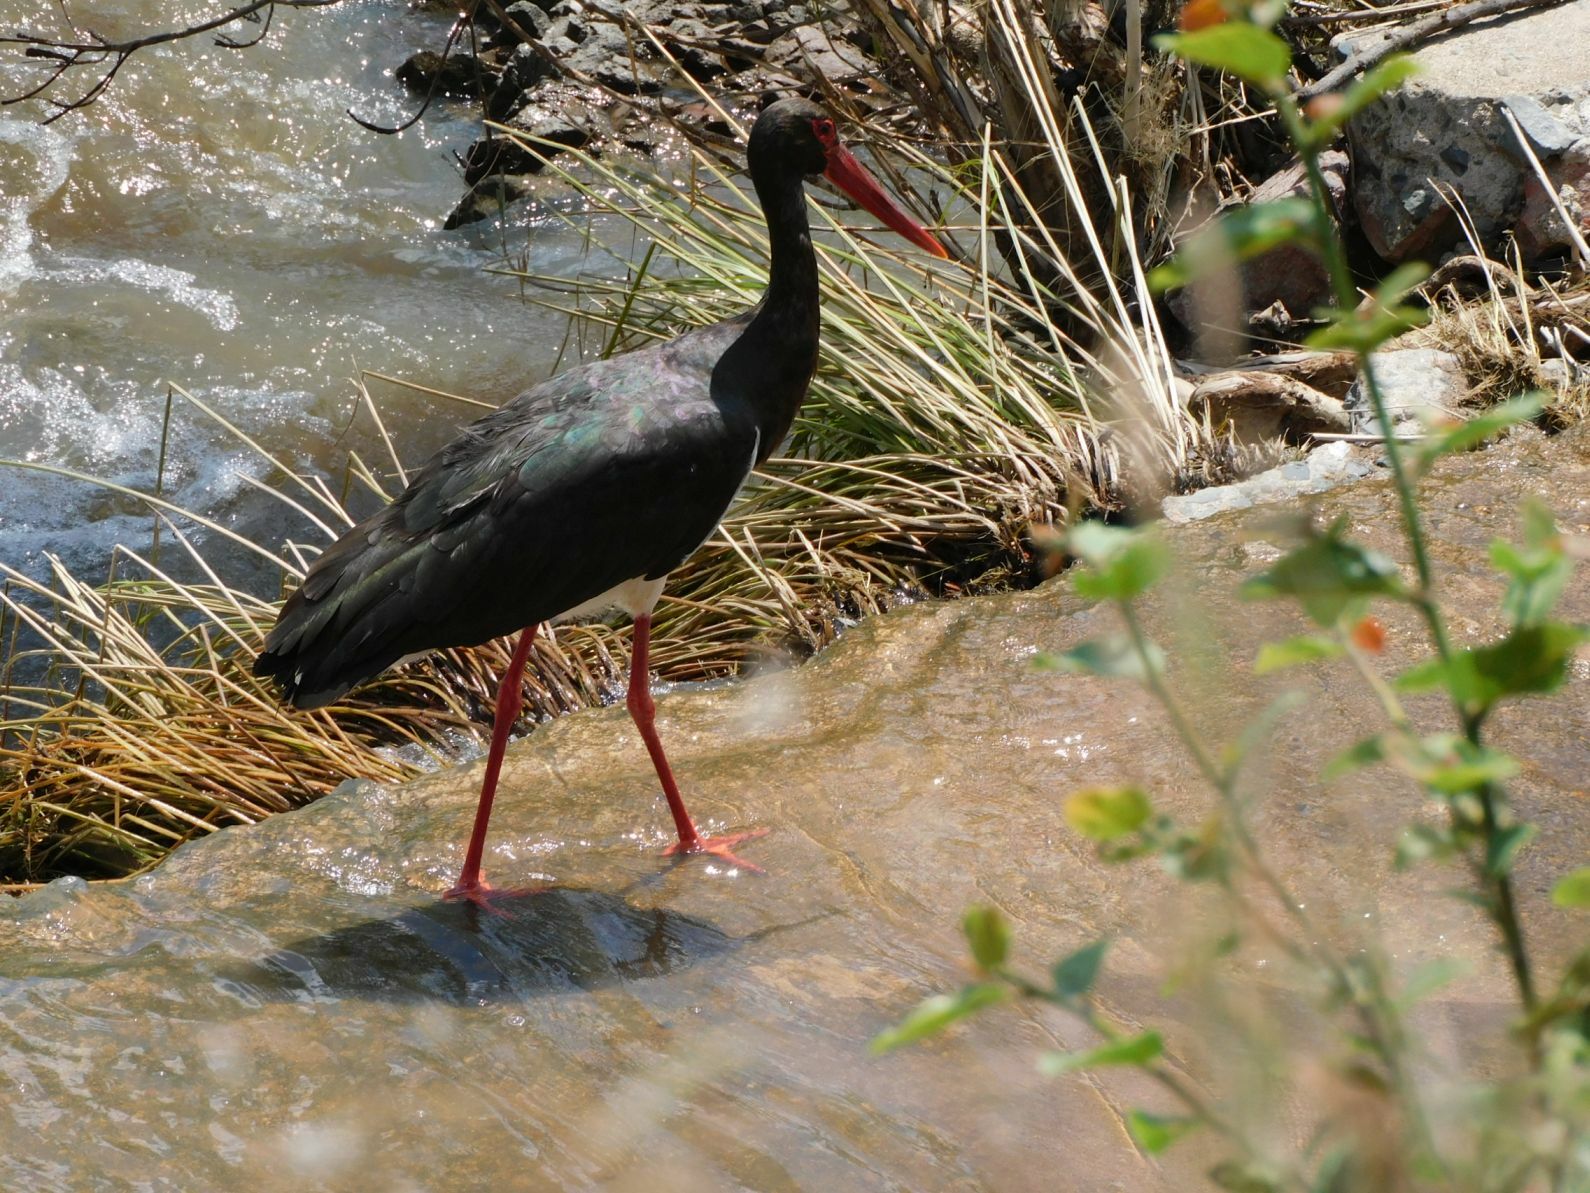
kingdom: Animalia
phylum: Chordata
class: Aves
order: Ciconiiformes
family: Ciconiidae
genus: Ciconia
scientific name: Ciconia nigra
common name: Black stork
